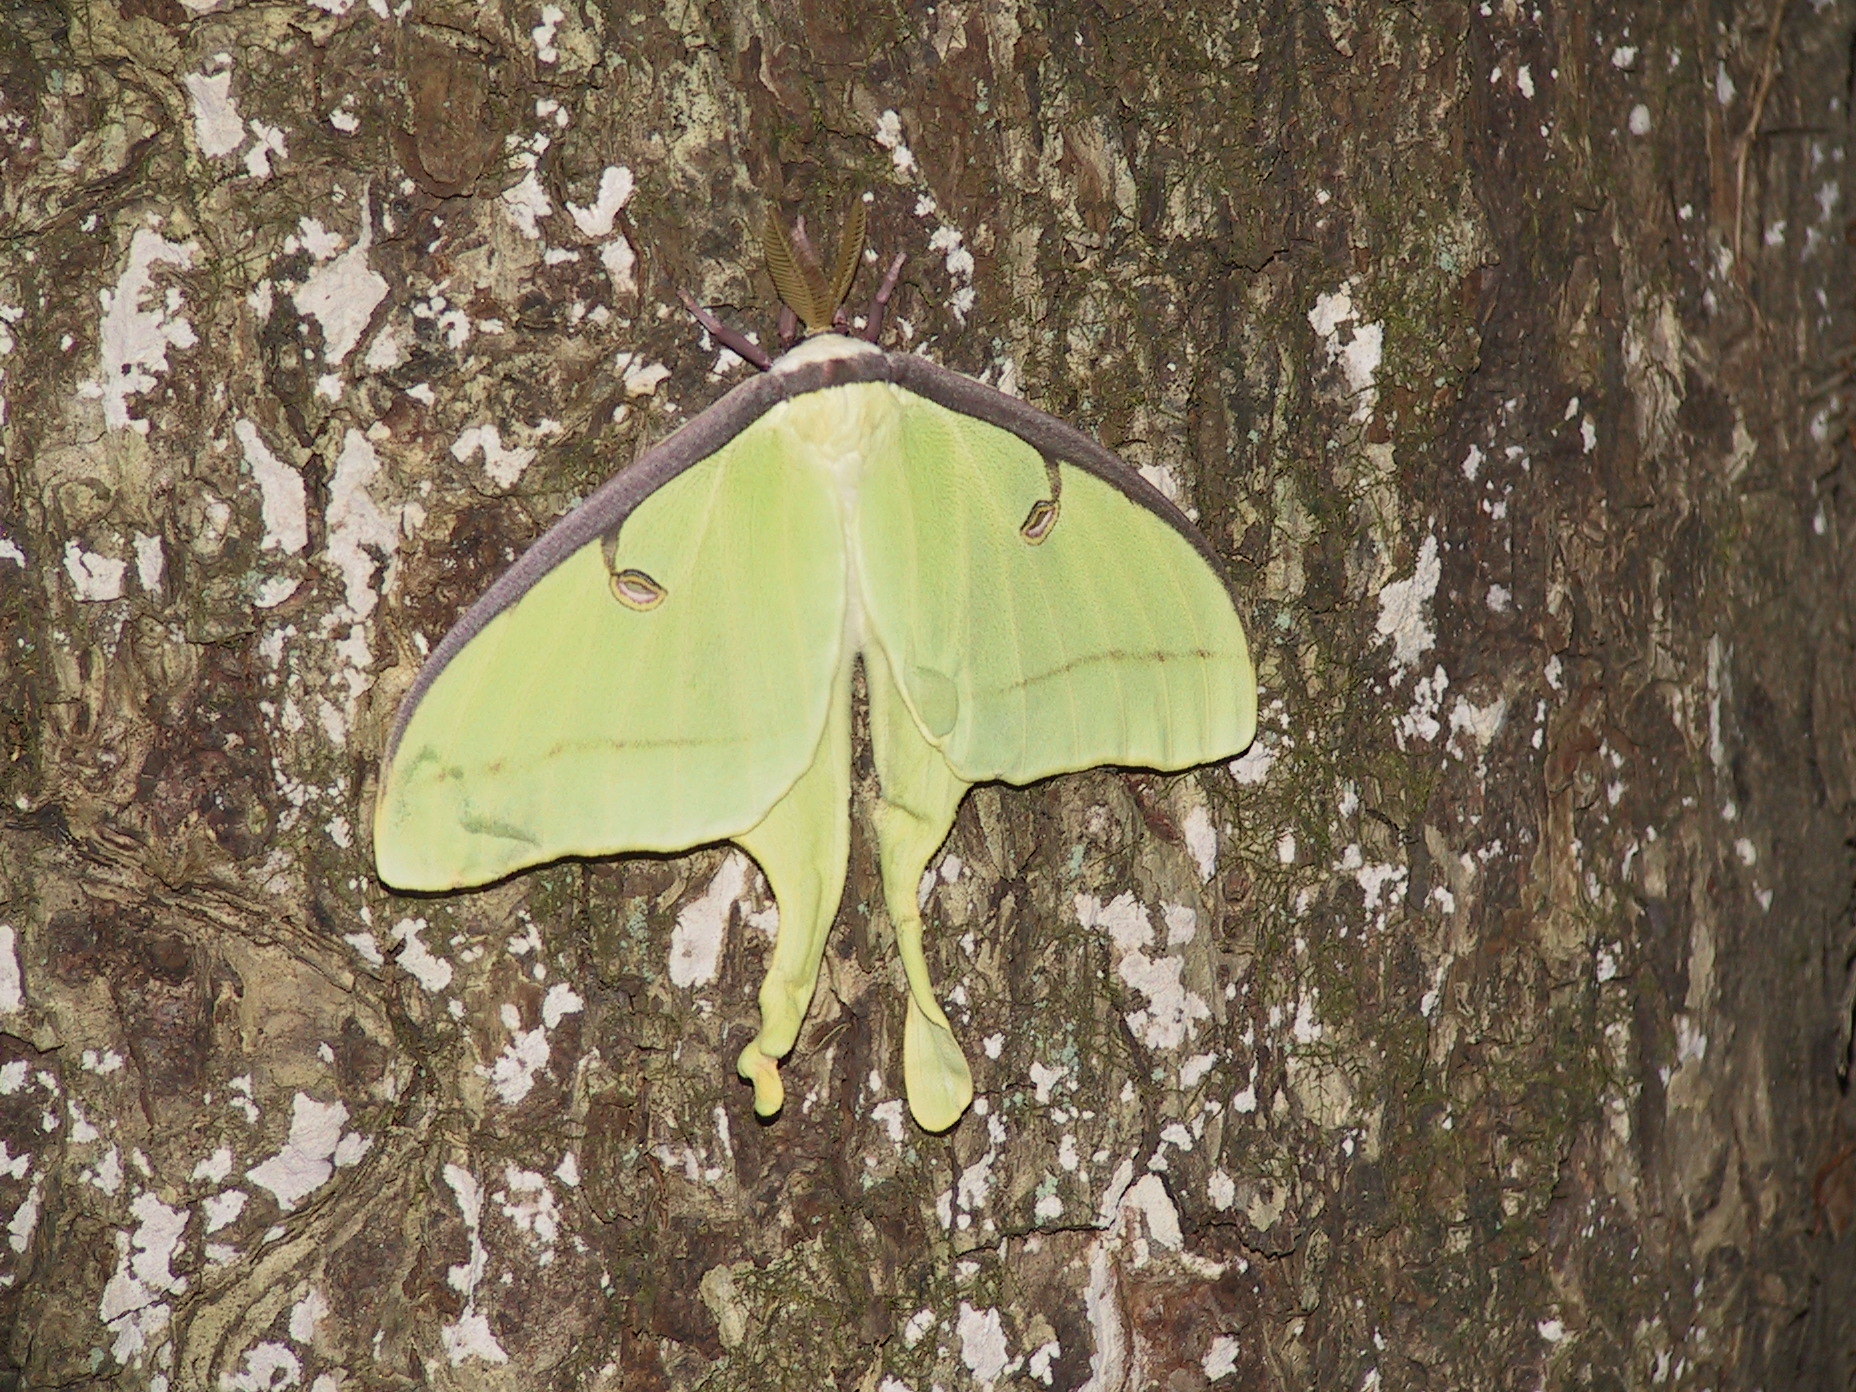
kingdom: Animalia
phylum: Arthropoda
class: Insecta
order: Lepidoptera
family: Saturniidae
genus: Actias
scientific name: Actias luna
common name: Luna moth
